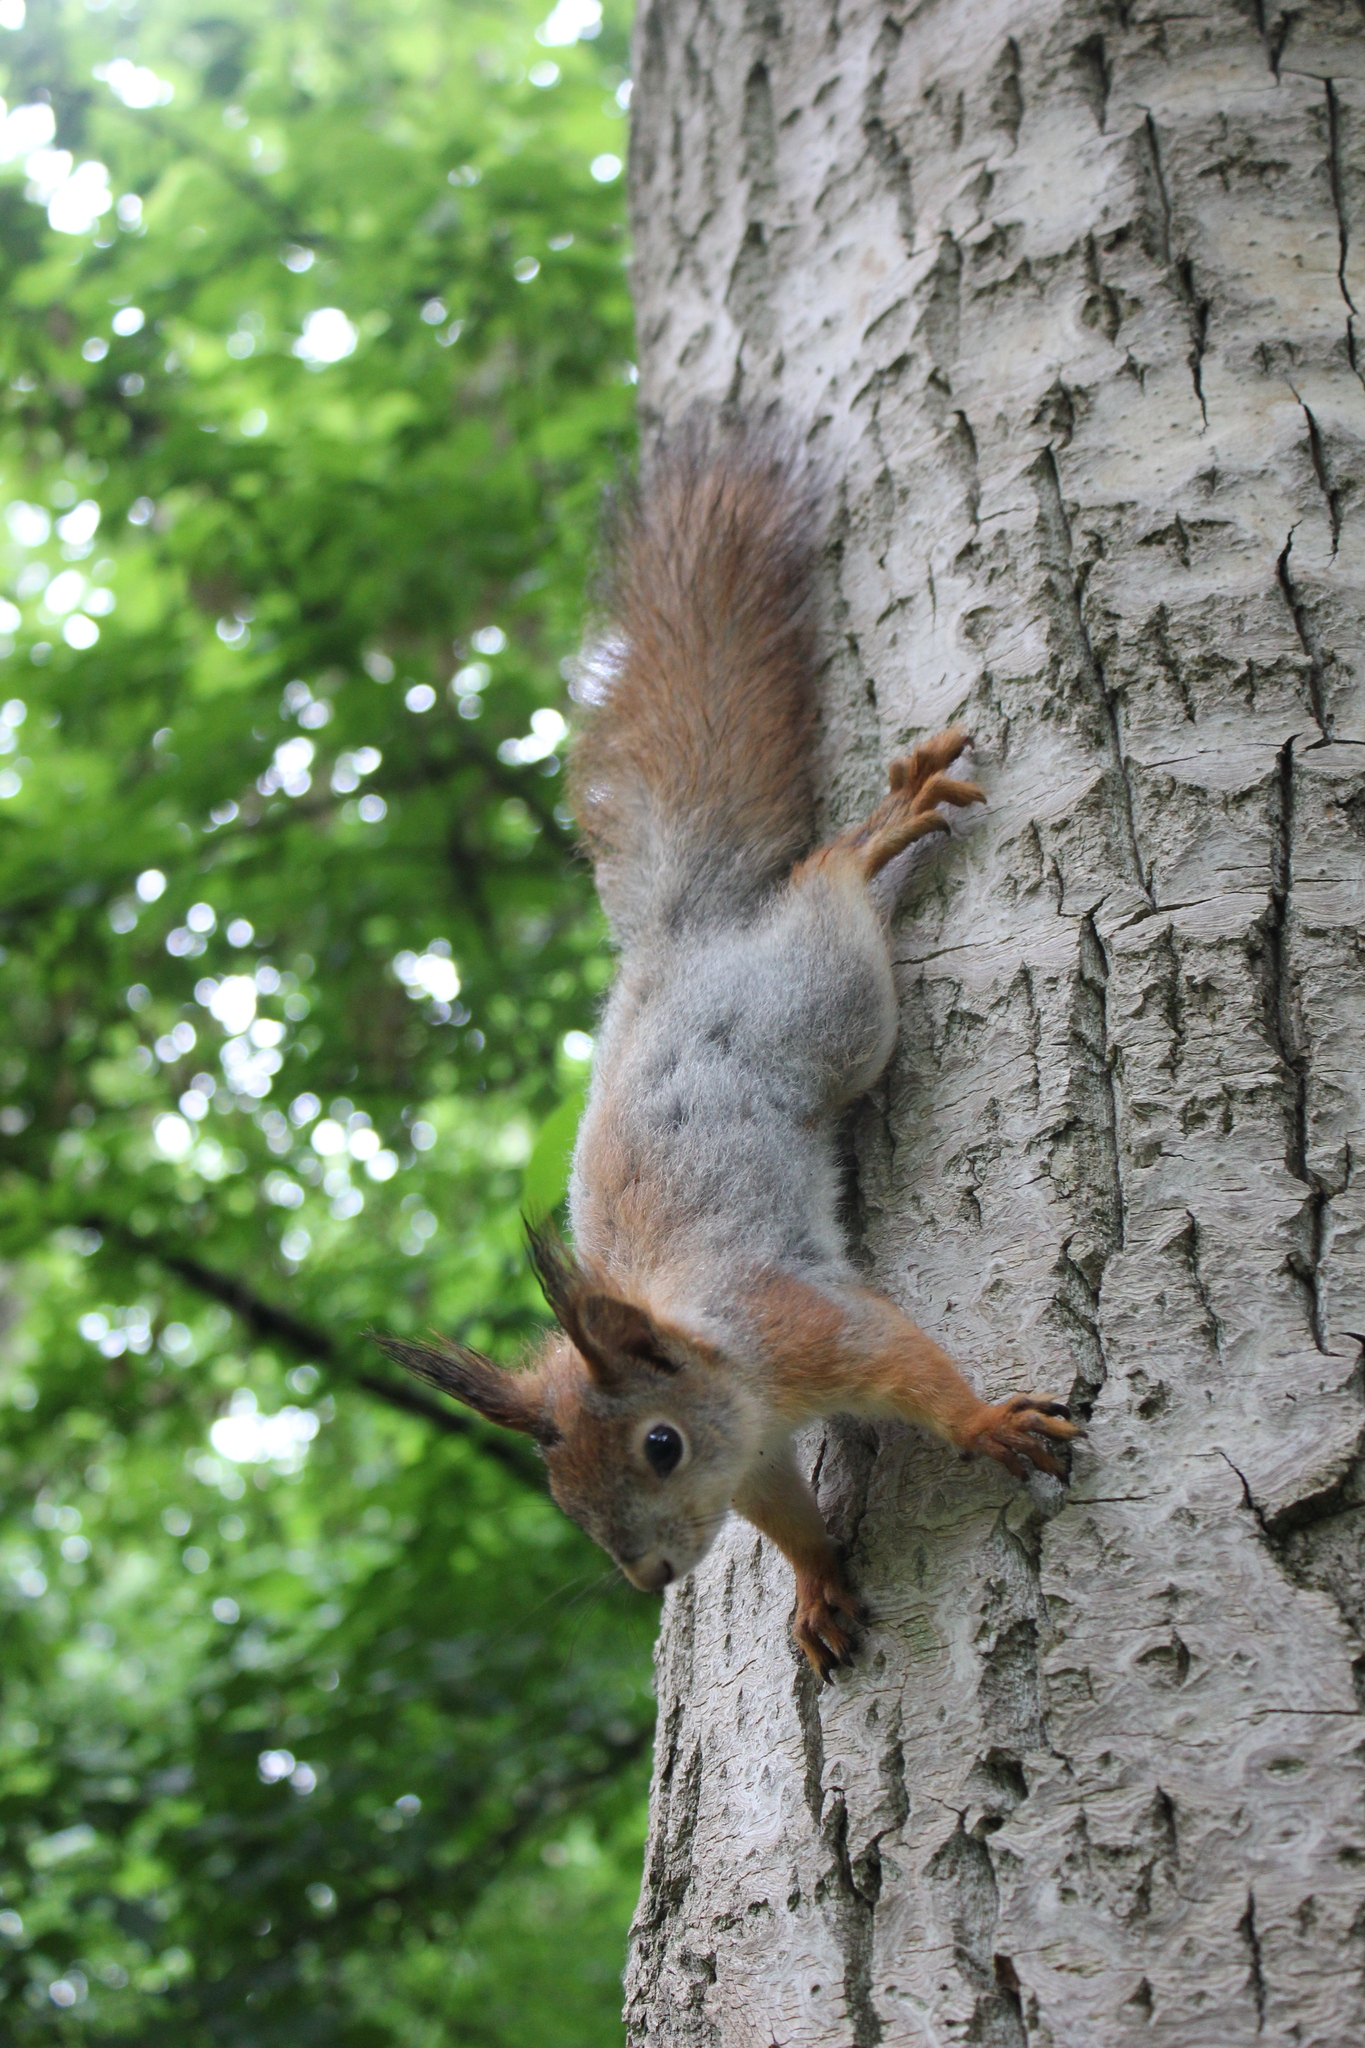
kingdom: Animalia
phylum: Chordata
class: Mammalia
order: Rodentia
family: Sciuridae
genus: Sciurus
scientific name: Sciurus vulgaris
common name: Eurasian red squirrel
